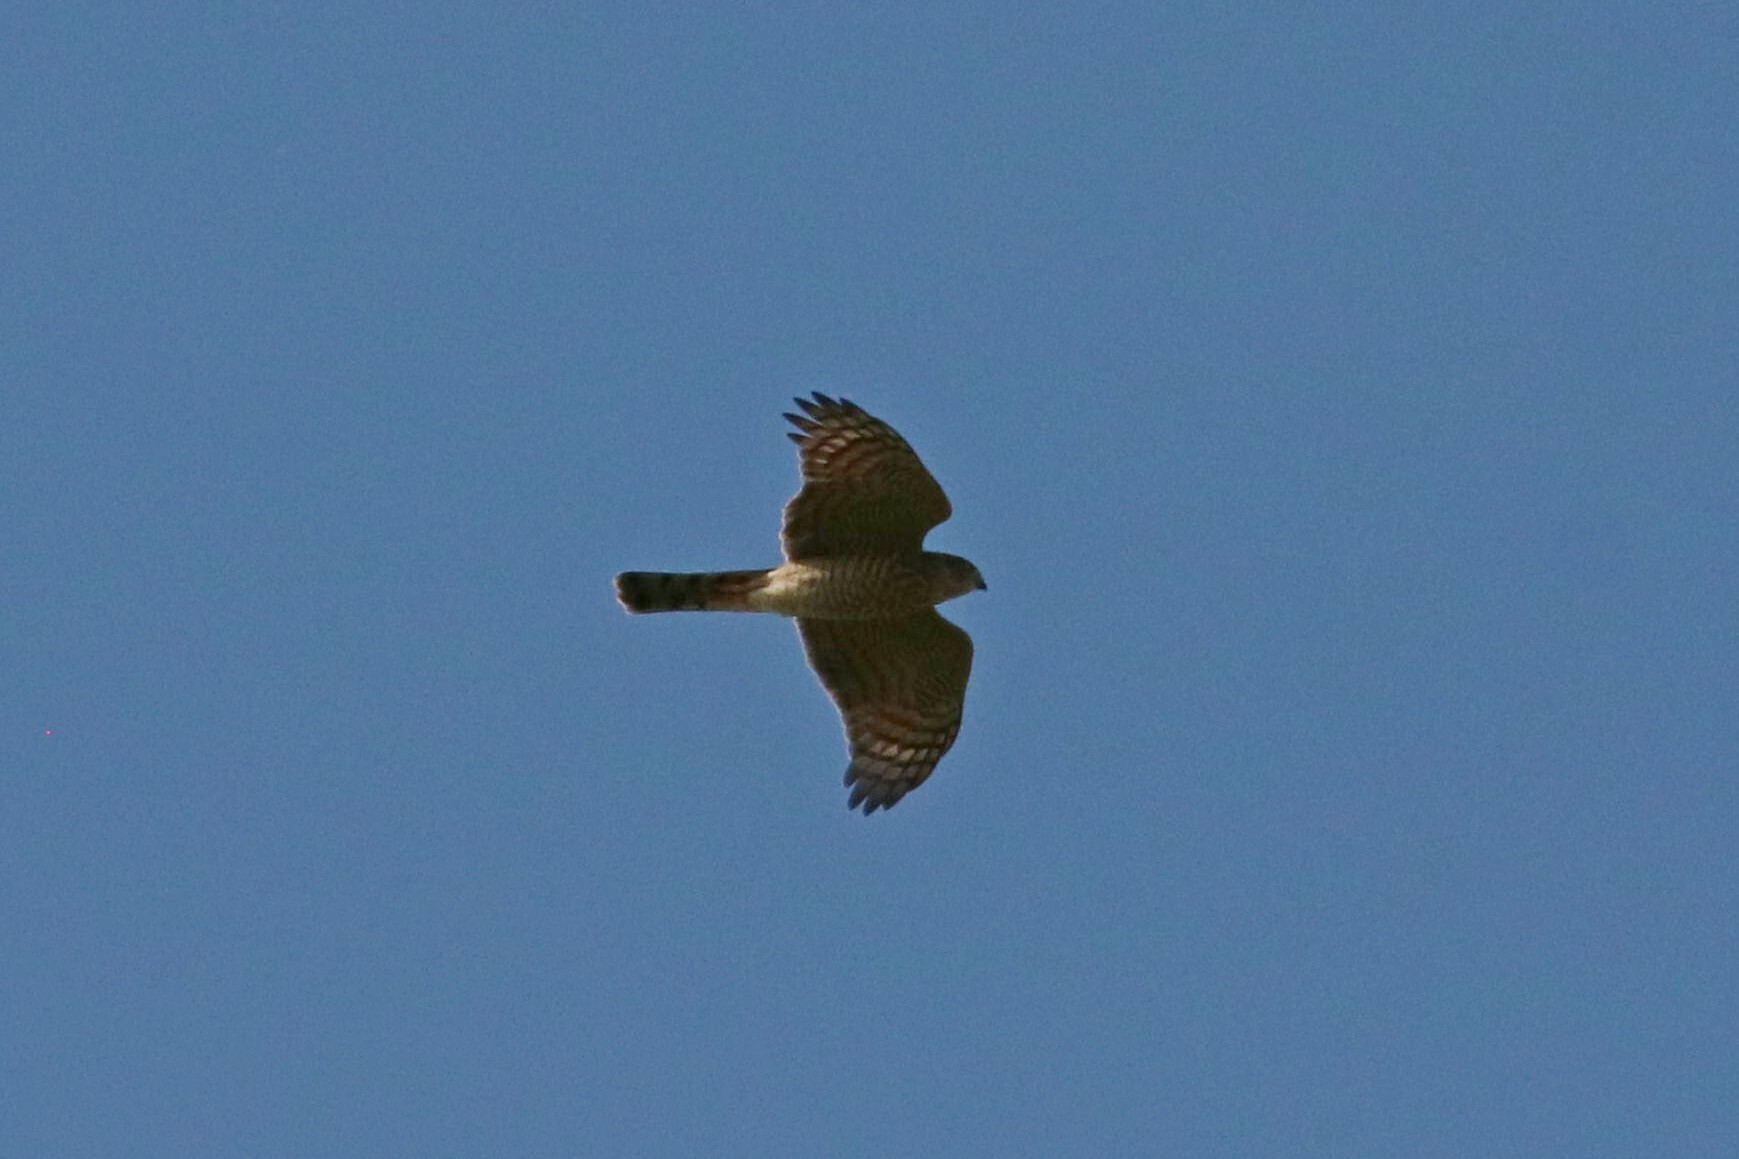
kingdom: Animalia
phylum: Chordata
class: Aves
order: Accipitriformes
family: Accipitridae
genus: Accipiter
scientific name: Accipiter nisus
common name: Eurasian sparrowhawk
